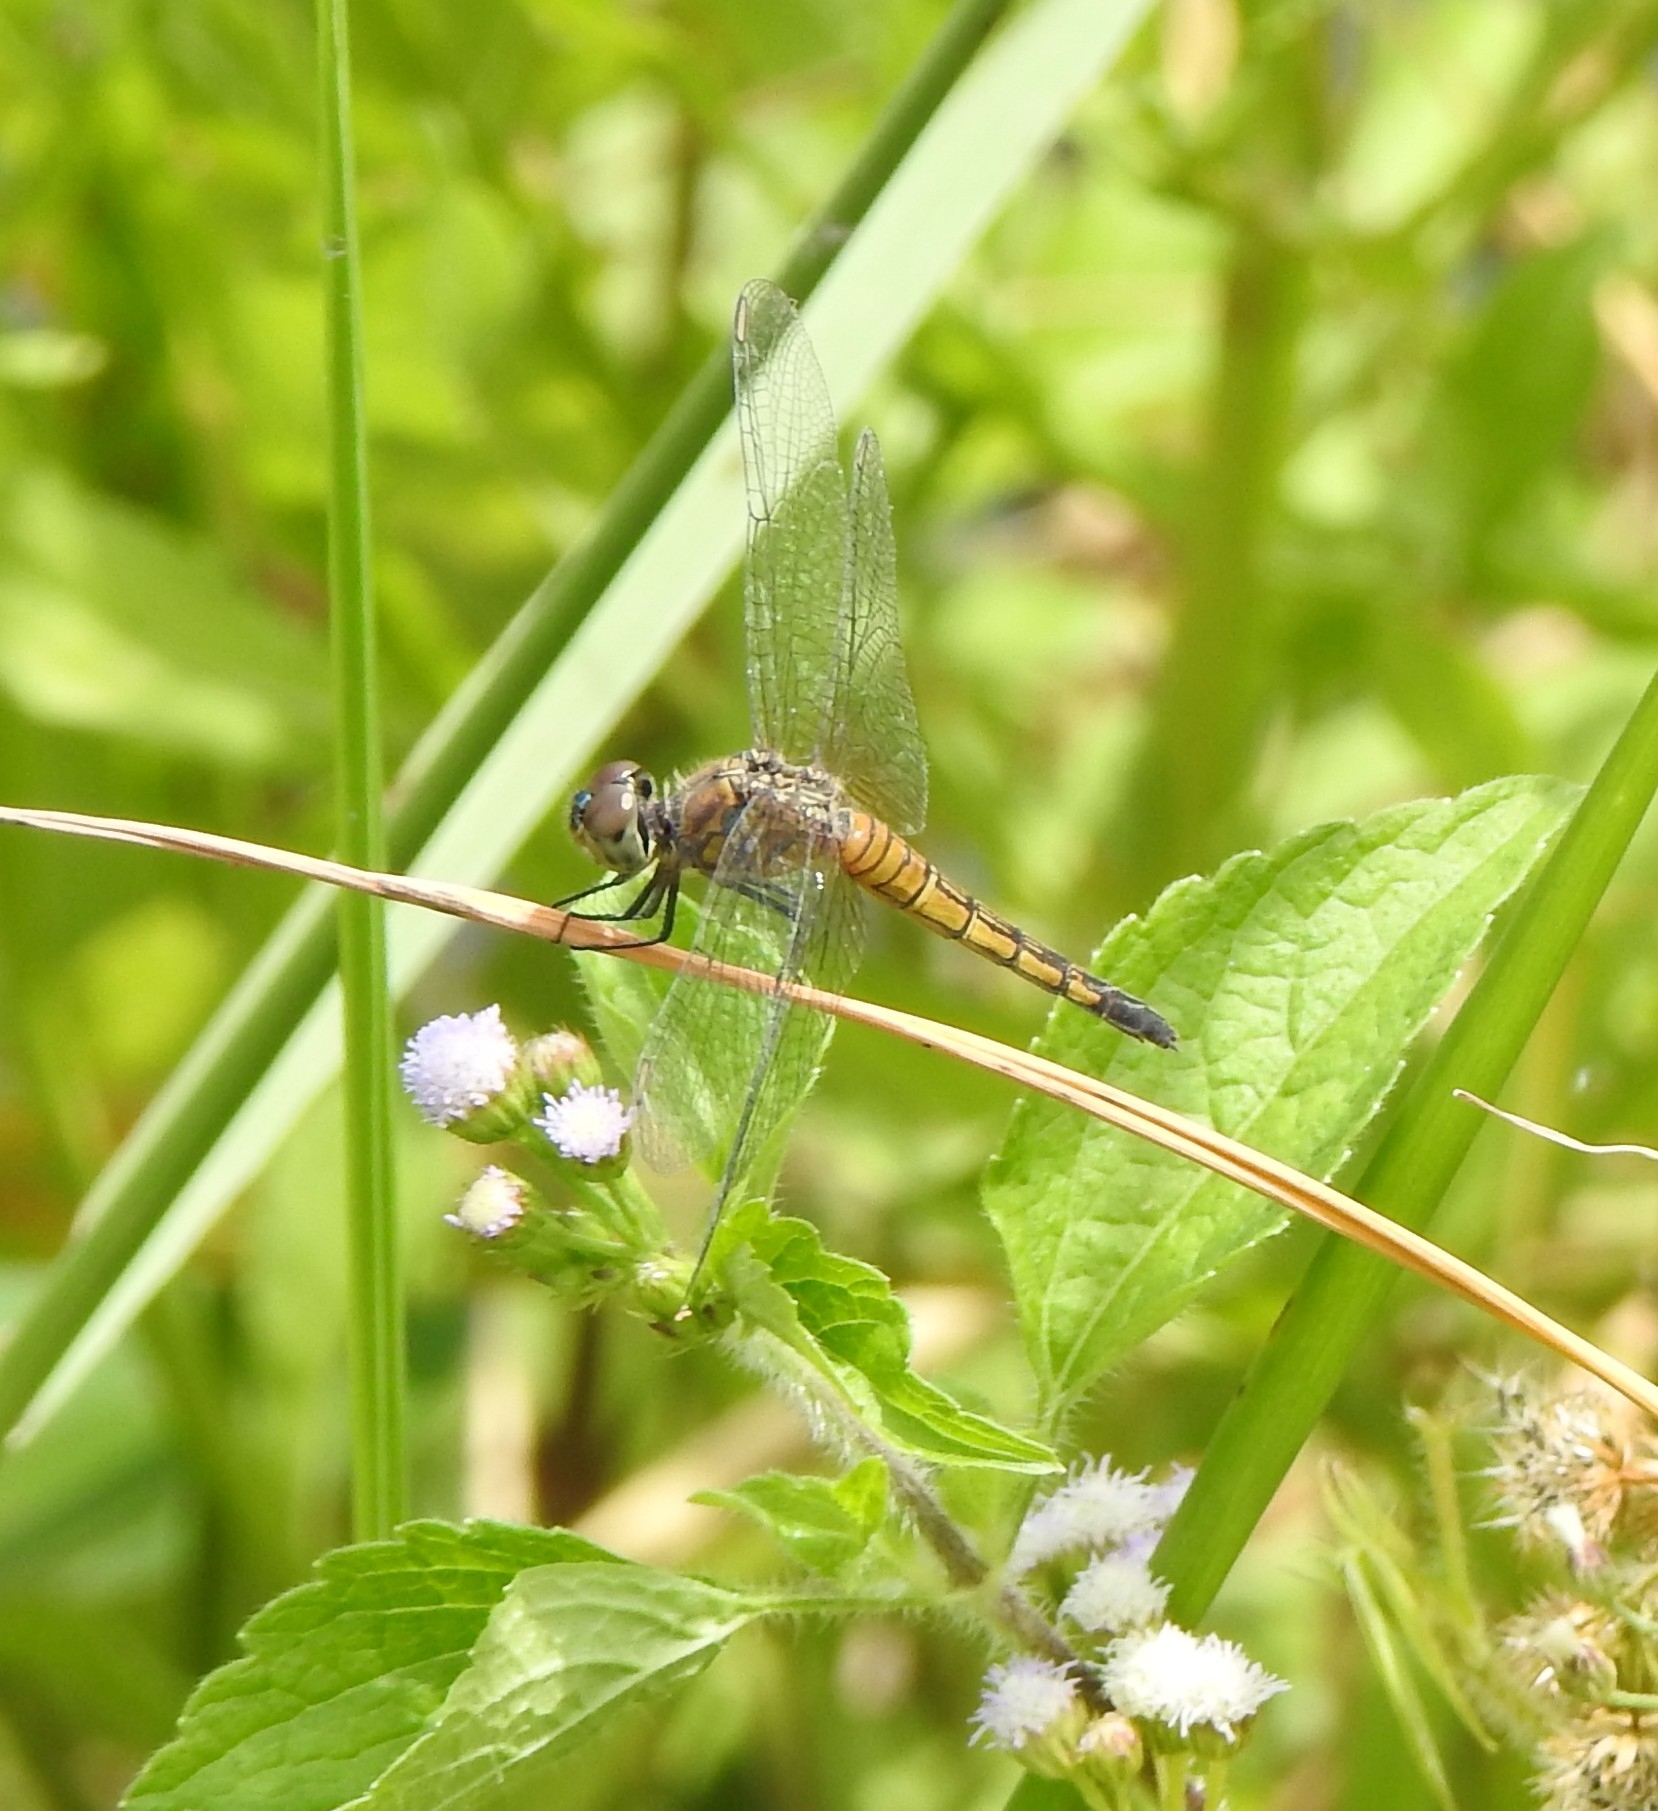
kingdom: Animalia
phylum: Arthropoda
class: Insecta
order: Odonata
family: Libellulidae
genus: Brachydiplax
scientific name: Brachydiplax chalybea
